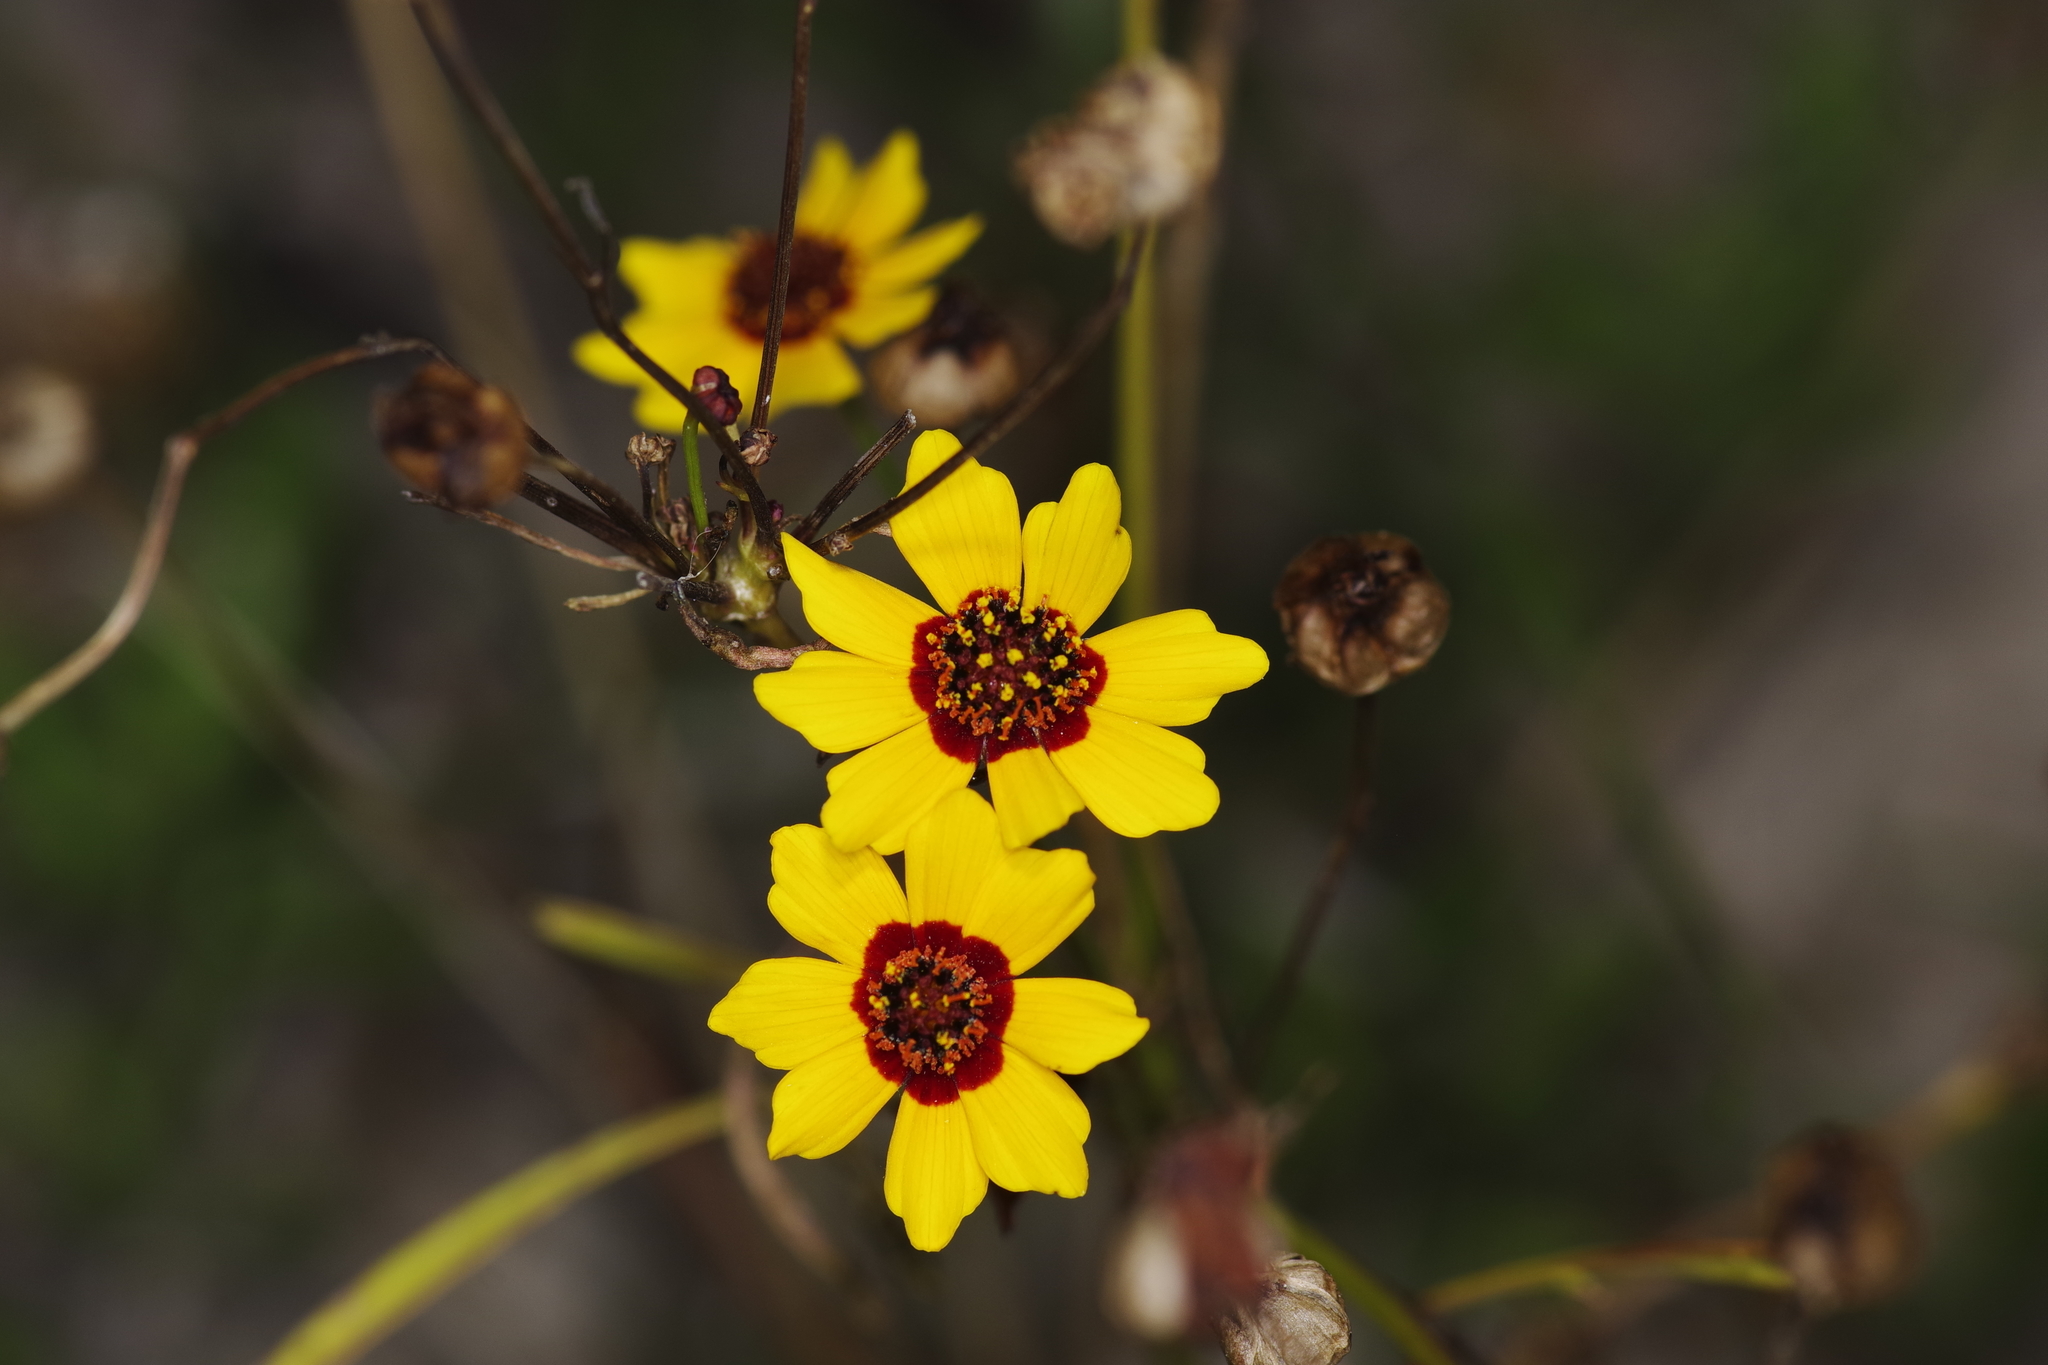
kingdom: Plantae
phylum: Tracheophyta
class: Magnoliopsida
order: Asterales
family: Asteraceae
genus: Coreopsis
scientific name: Coreopsis tinctoria
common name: Garden tickseed
